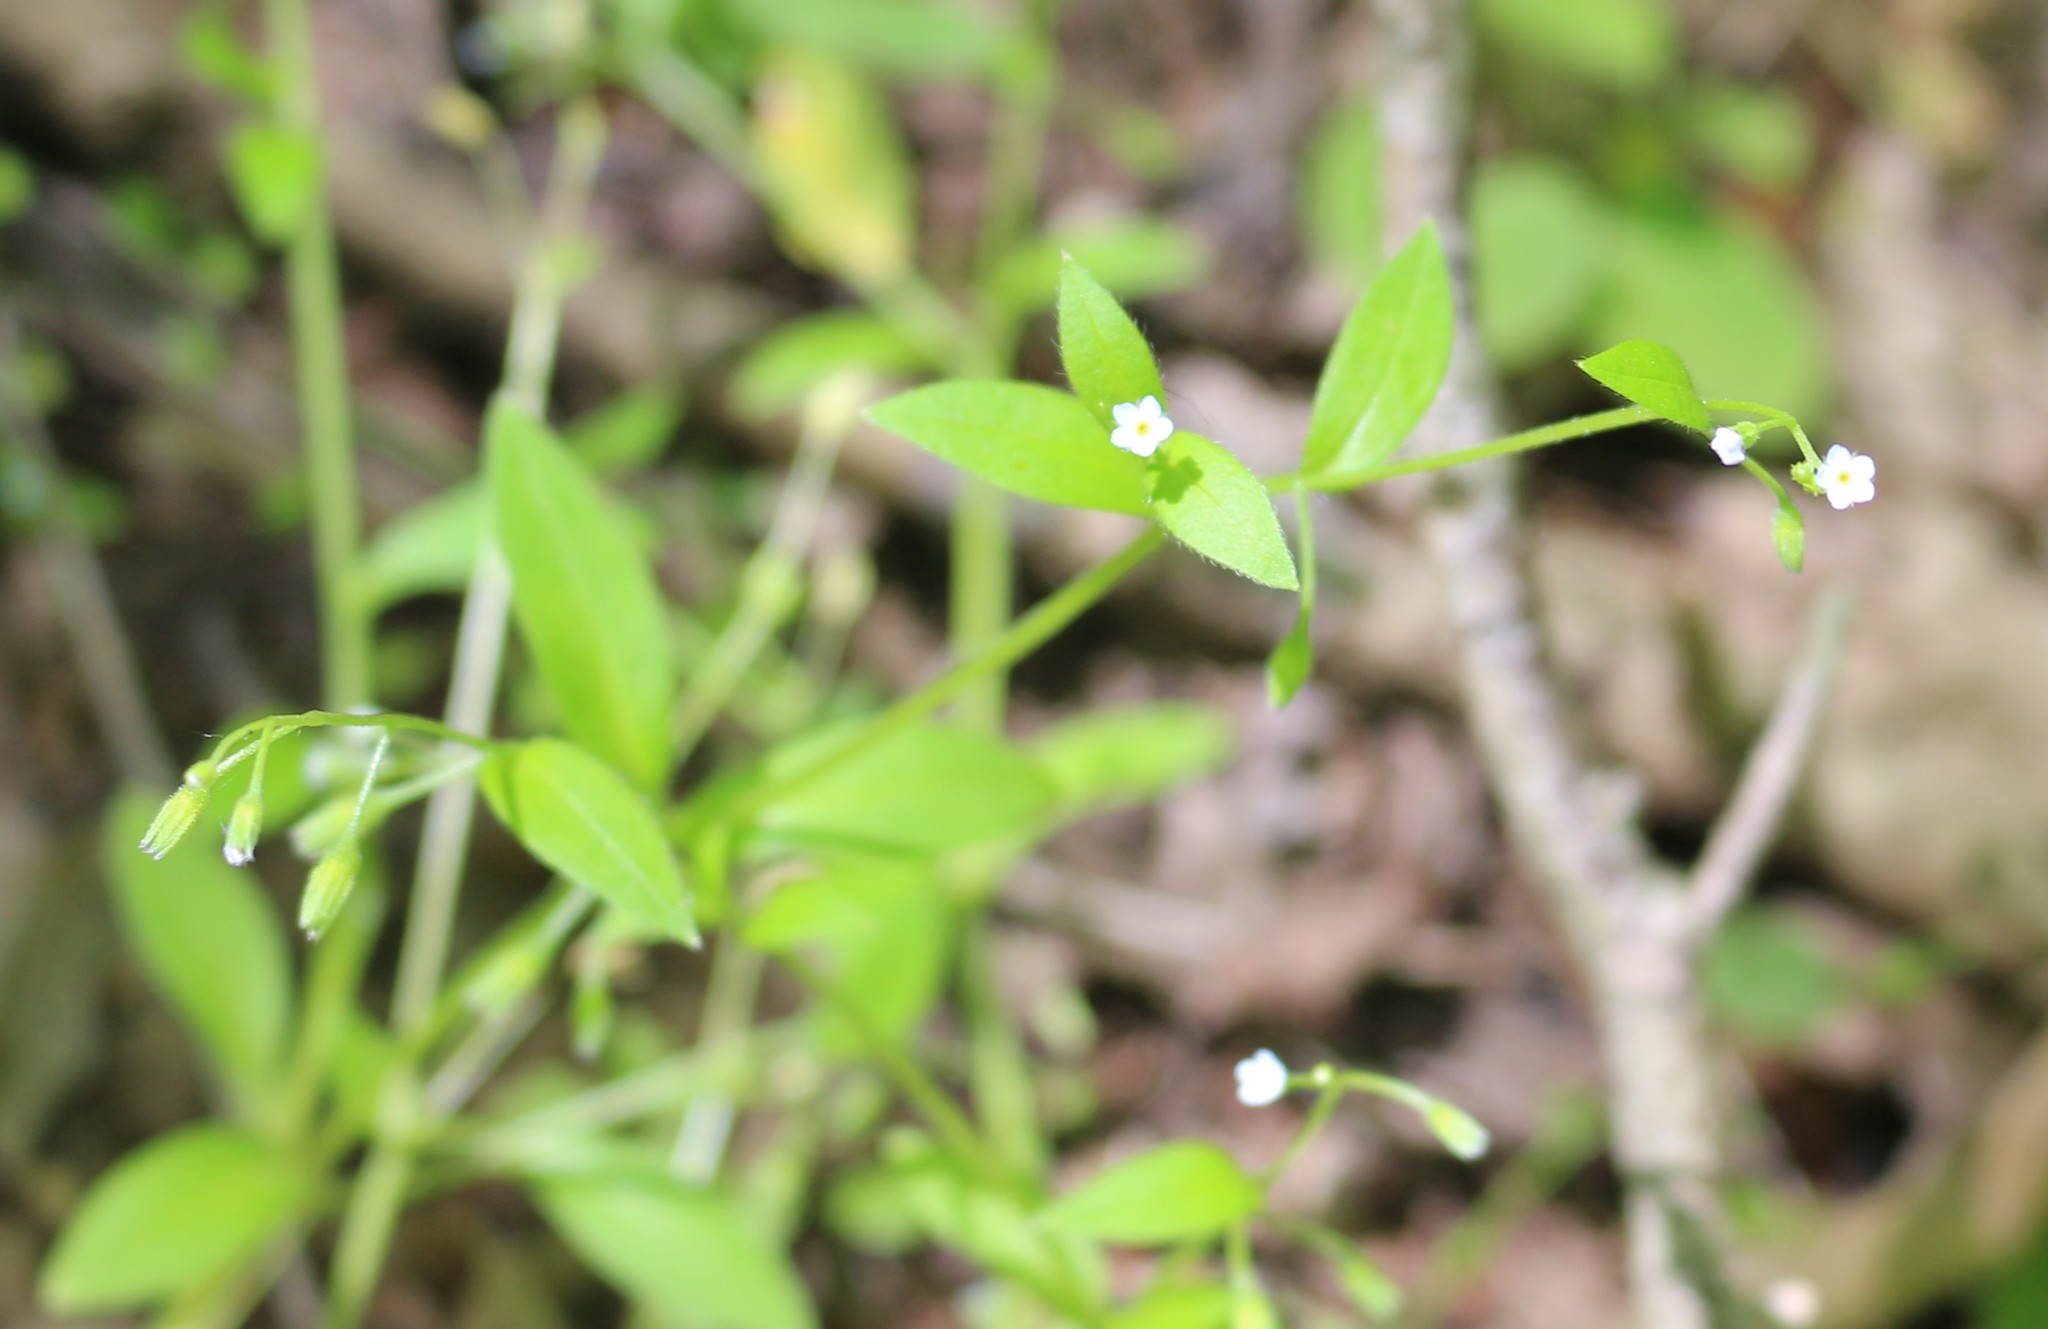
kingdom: Plantae
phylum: Tracheophyta
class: Magnoliopsida
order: Boraginales
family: Boraginaceae
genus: Myosotis
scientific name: Myosotis sparsiflora
